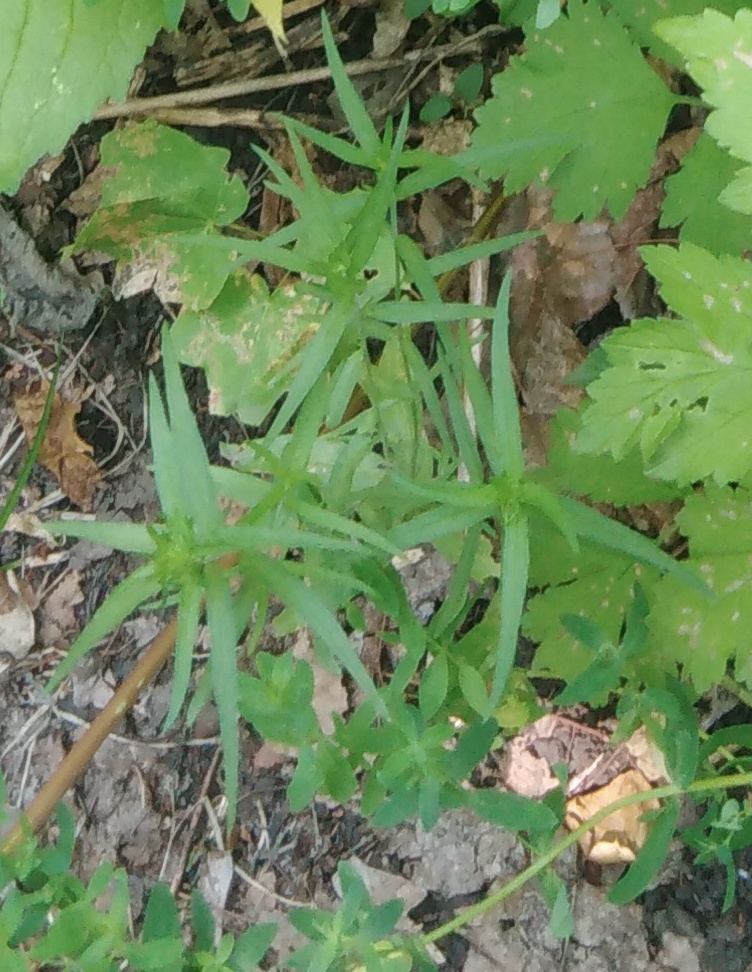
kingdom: Plantae
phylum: Tracheophyta
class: Magnoliopsida
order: Caryophyllales
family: Caryophyllaceae
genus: Rabelera
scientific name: Rabelera holostea
